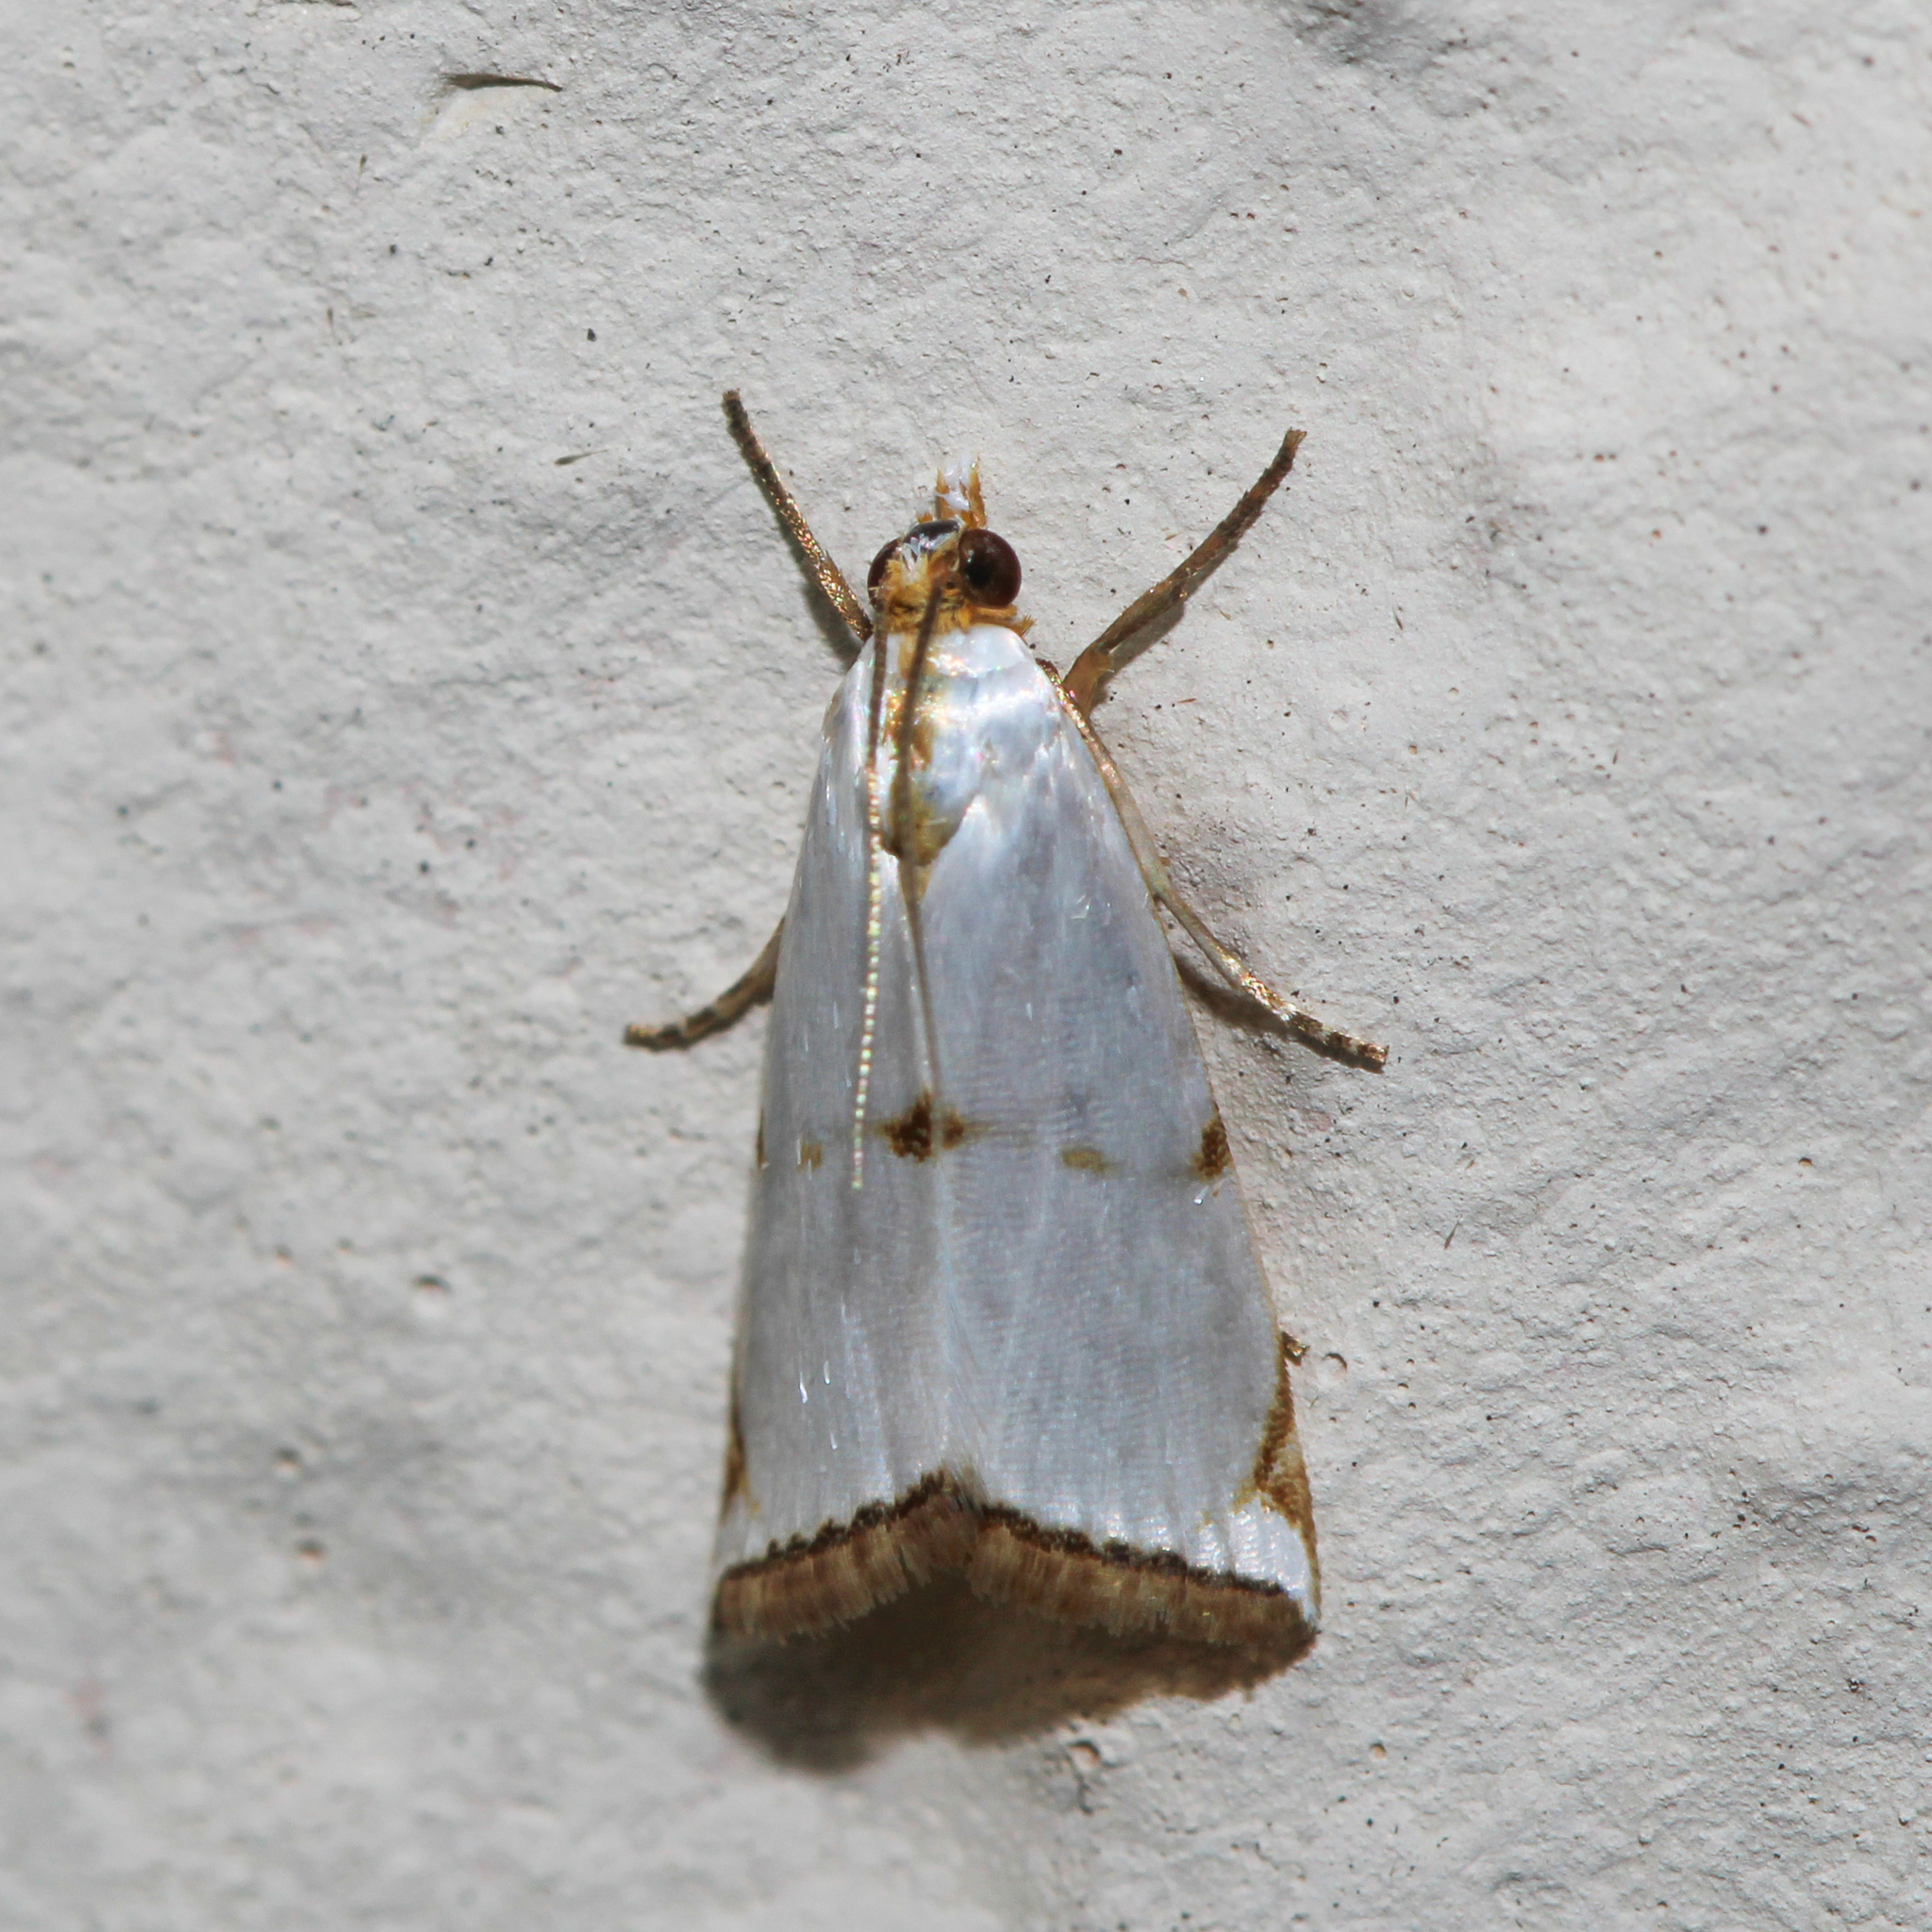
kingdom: Animalia
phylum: Arthropoda
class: Insecta
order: Lepidoptera
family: Crambidae
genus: Argyria
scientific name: Argyria lacteella
